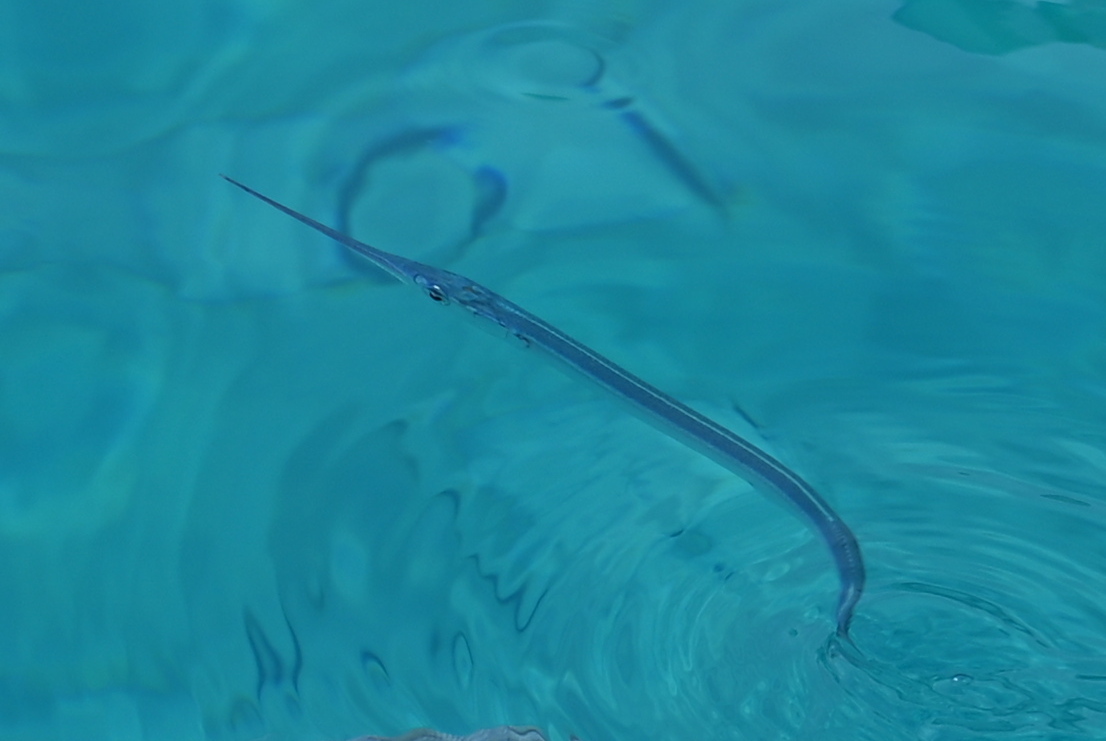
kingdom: Animalia
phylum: Chordata
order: Beloniformes
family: Belonidae
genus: Belone
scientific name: Belone
